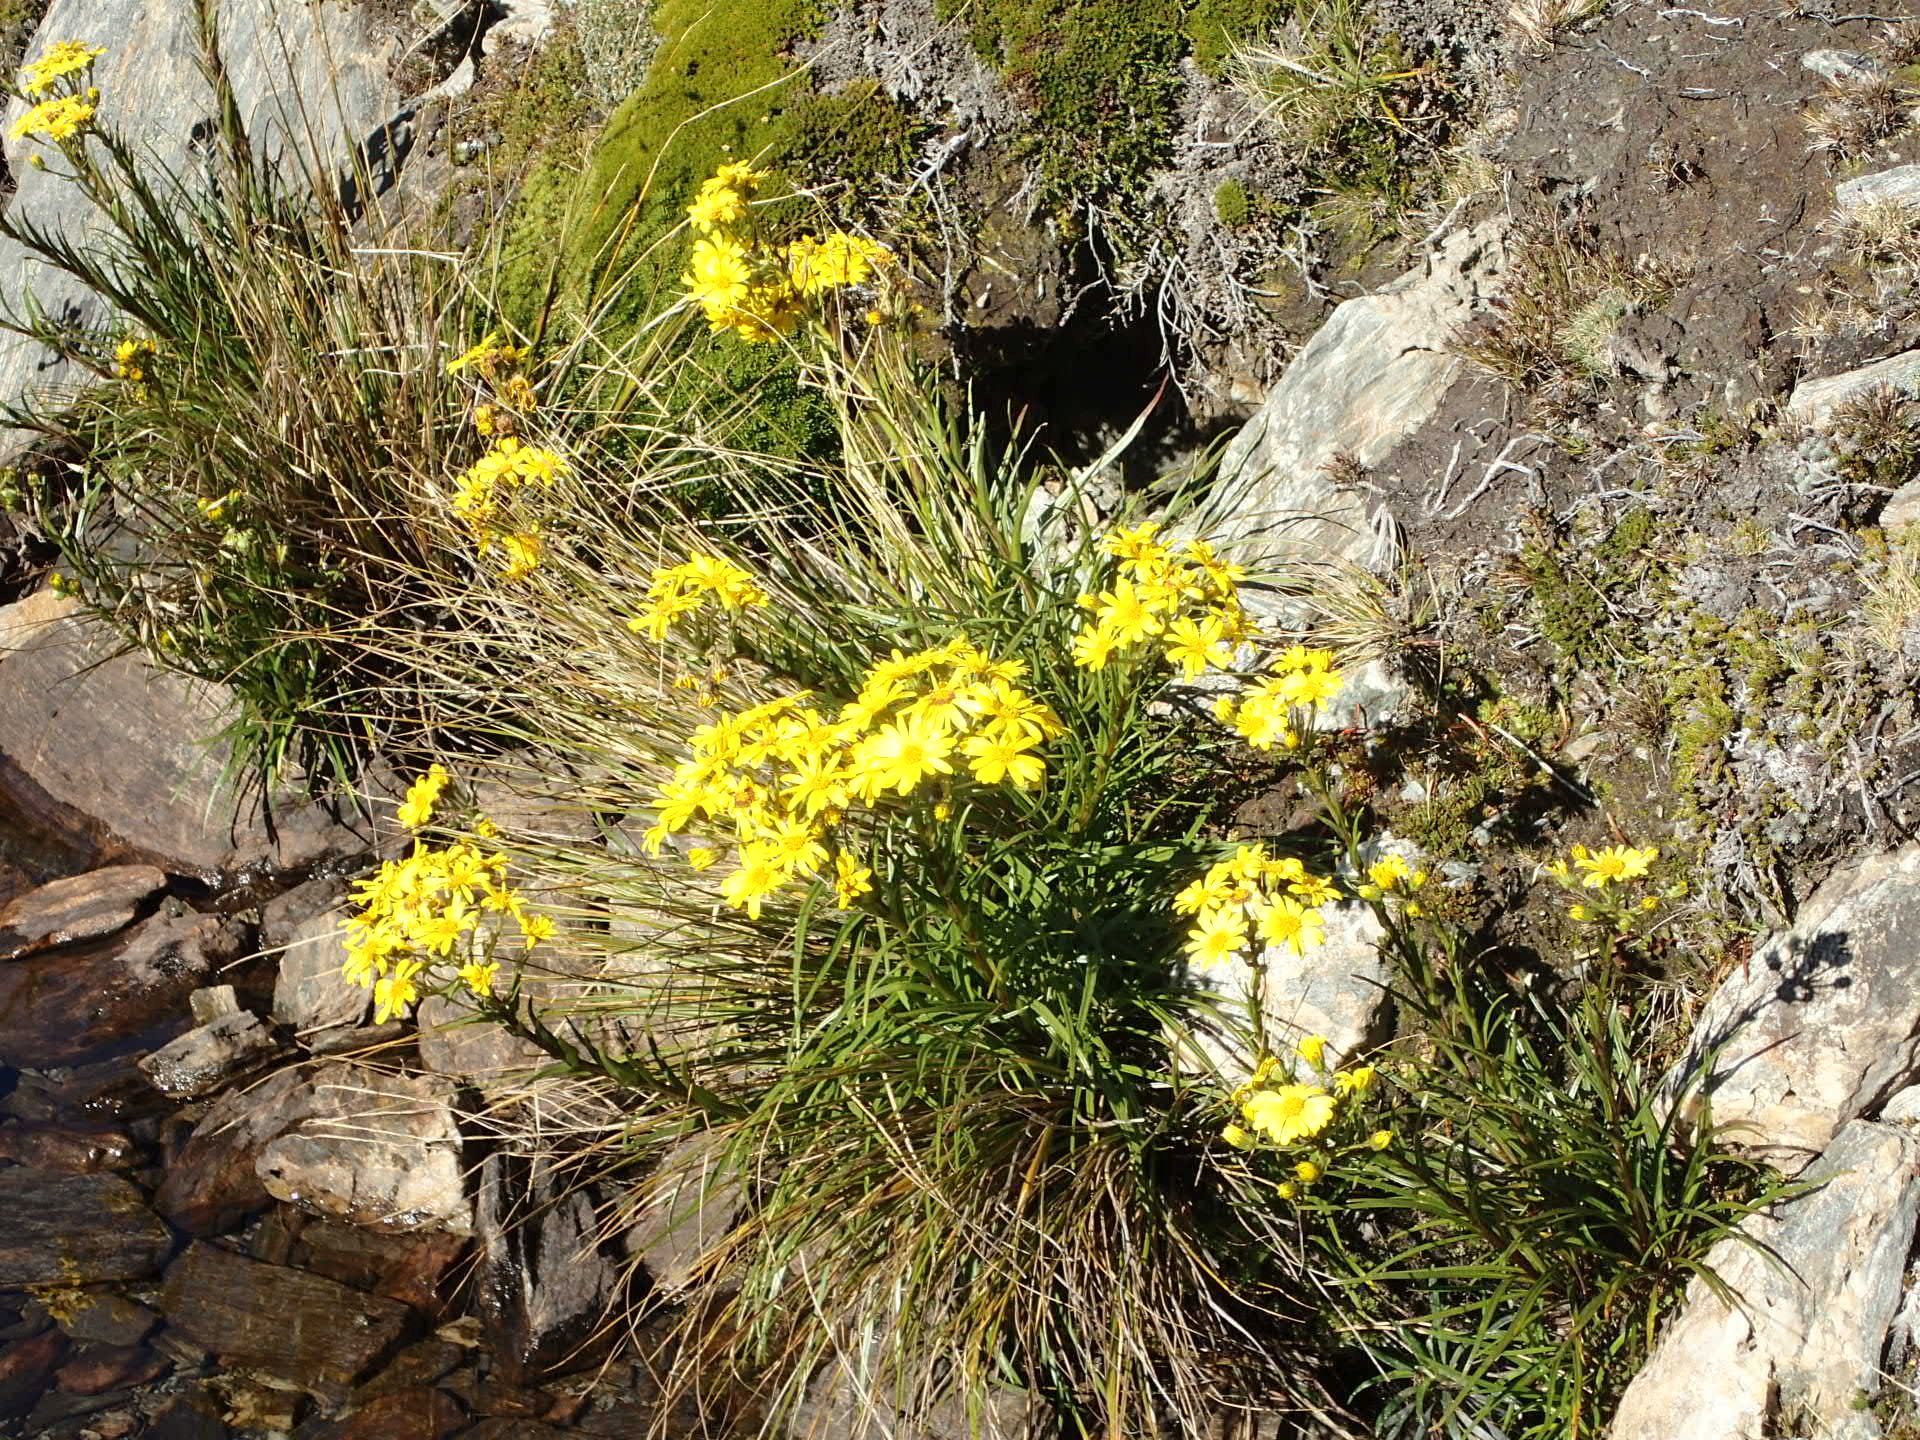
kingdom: Plantae
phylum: Tracheophyta
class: Magnoliopsida
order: Asterales
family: Asteraceae
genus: Dolichoglottis
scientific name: Dolichoglottis lyallii
